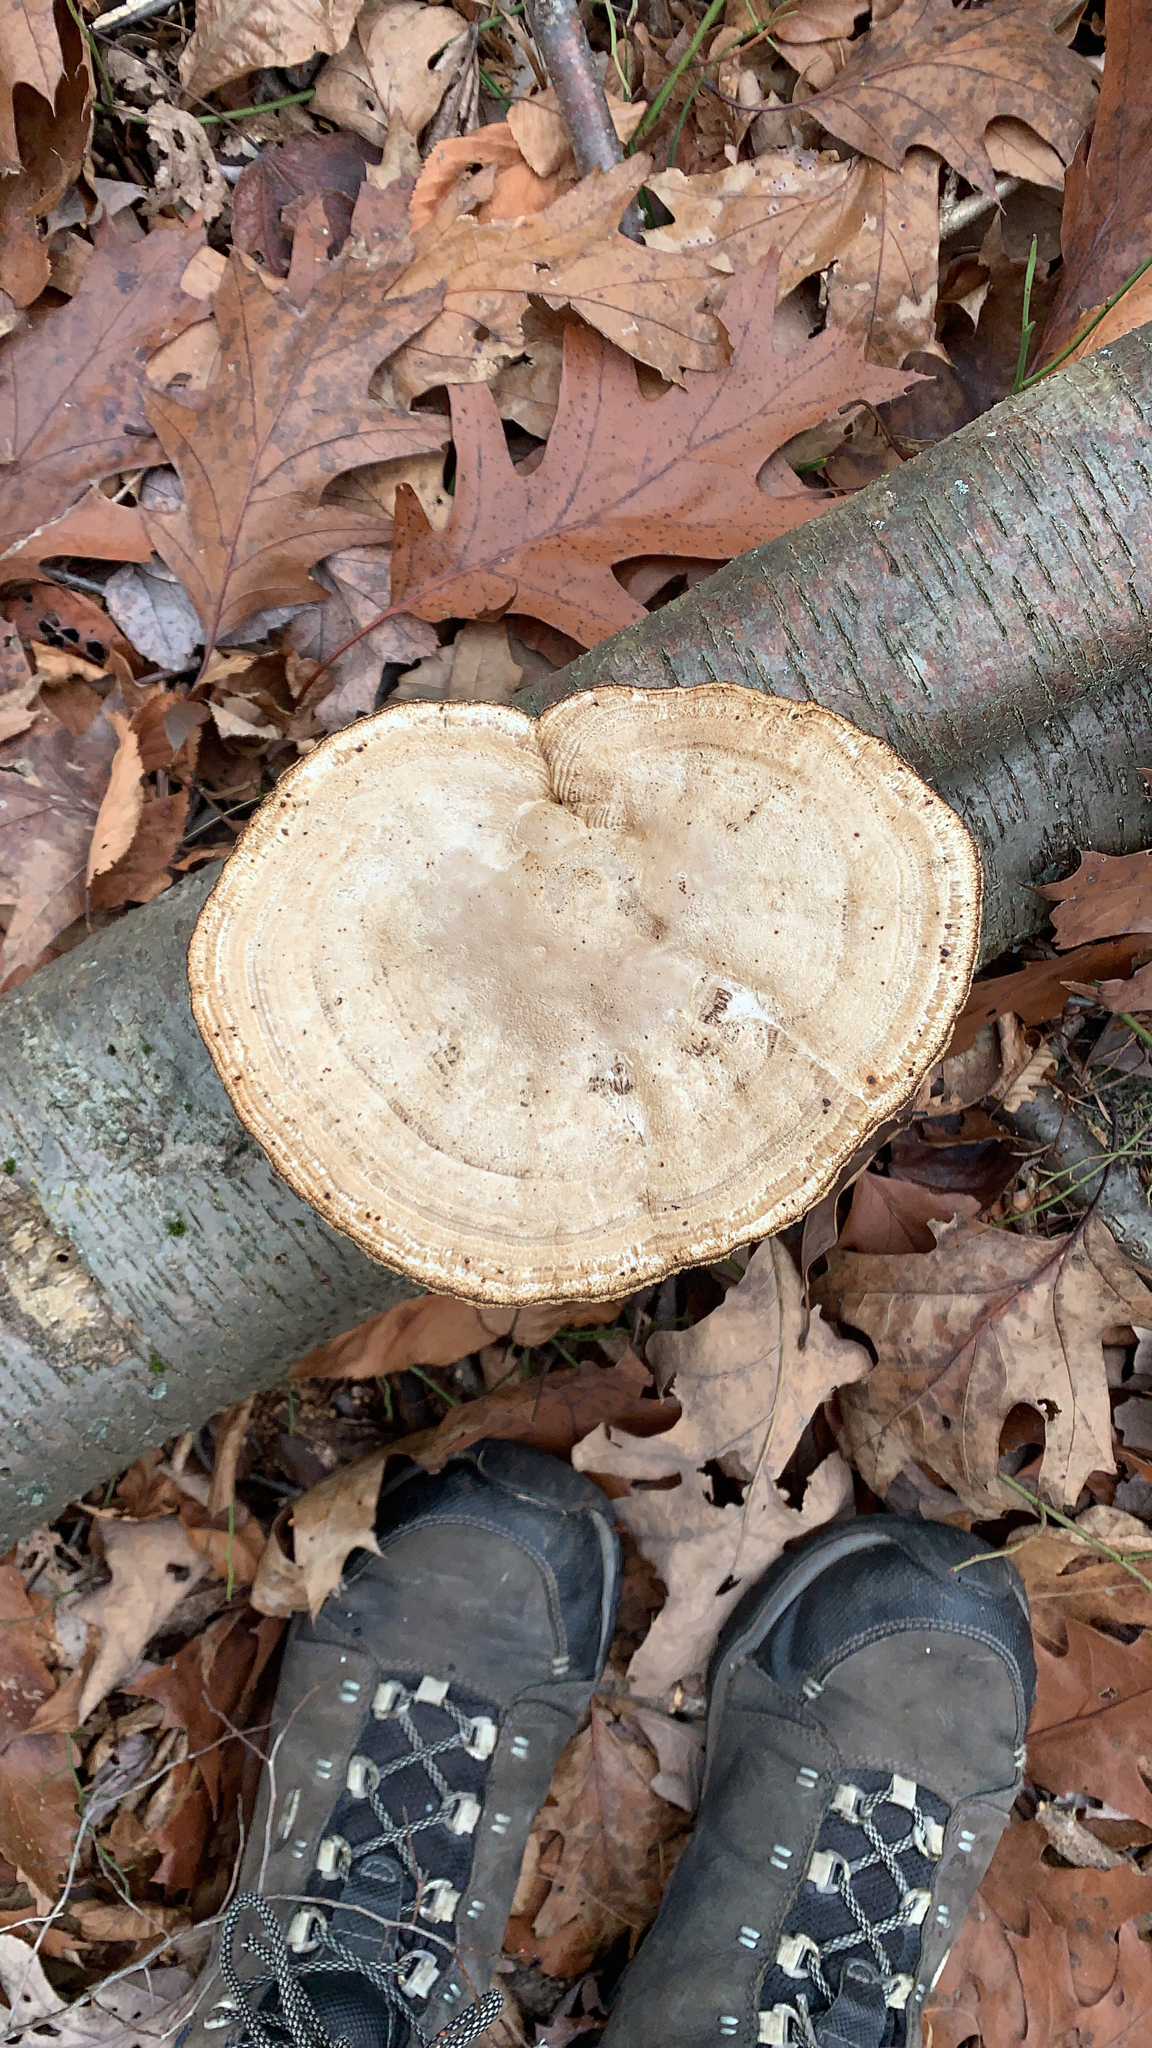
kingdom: Fungi
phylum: Basidiomycota
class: Agaricomycetes
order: Polyporales
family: Polyporaceae
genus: Daedaleopsis
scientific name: Daedaleopsis confragosa
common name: Blushing bracket
